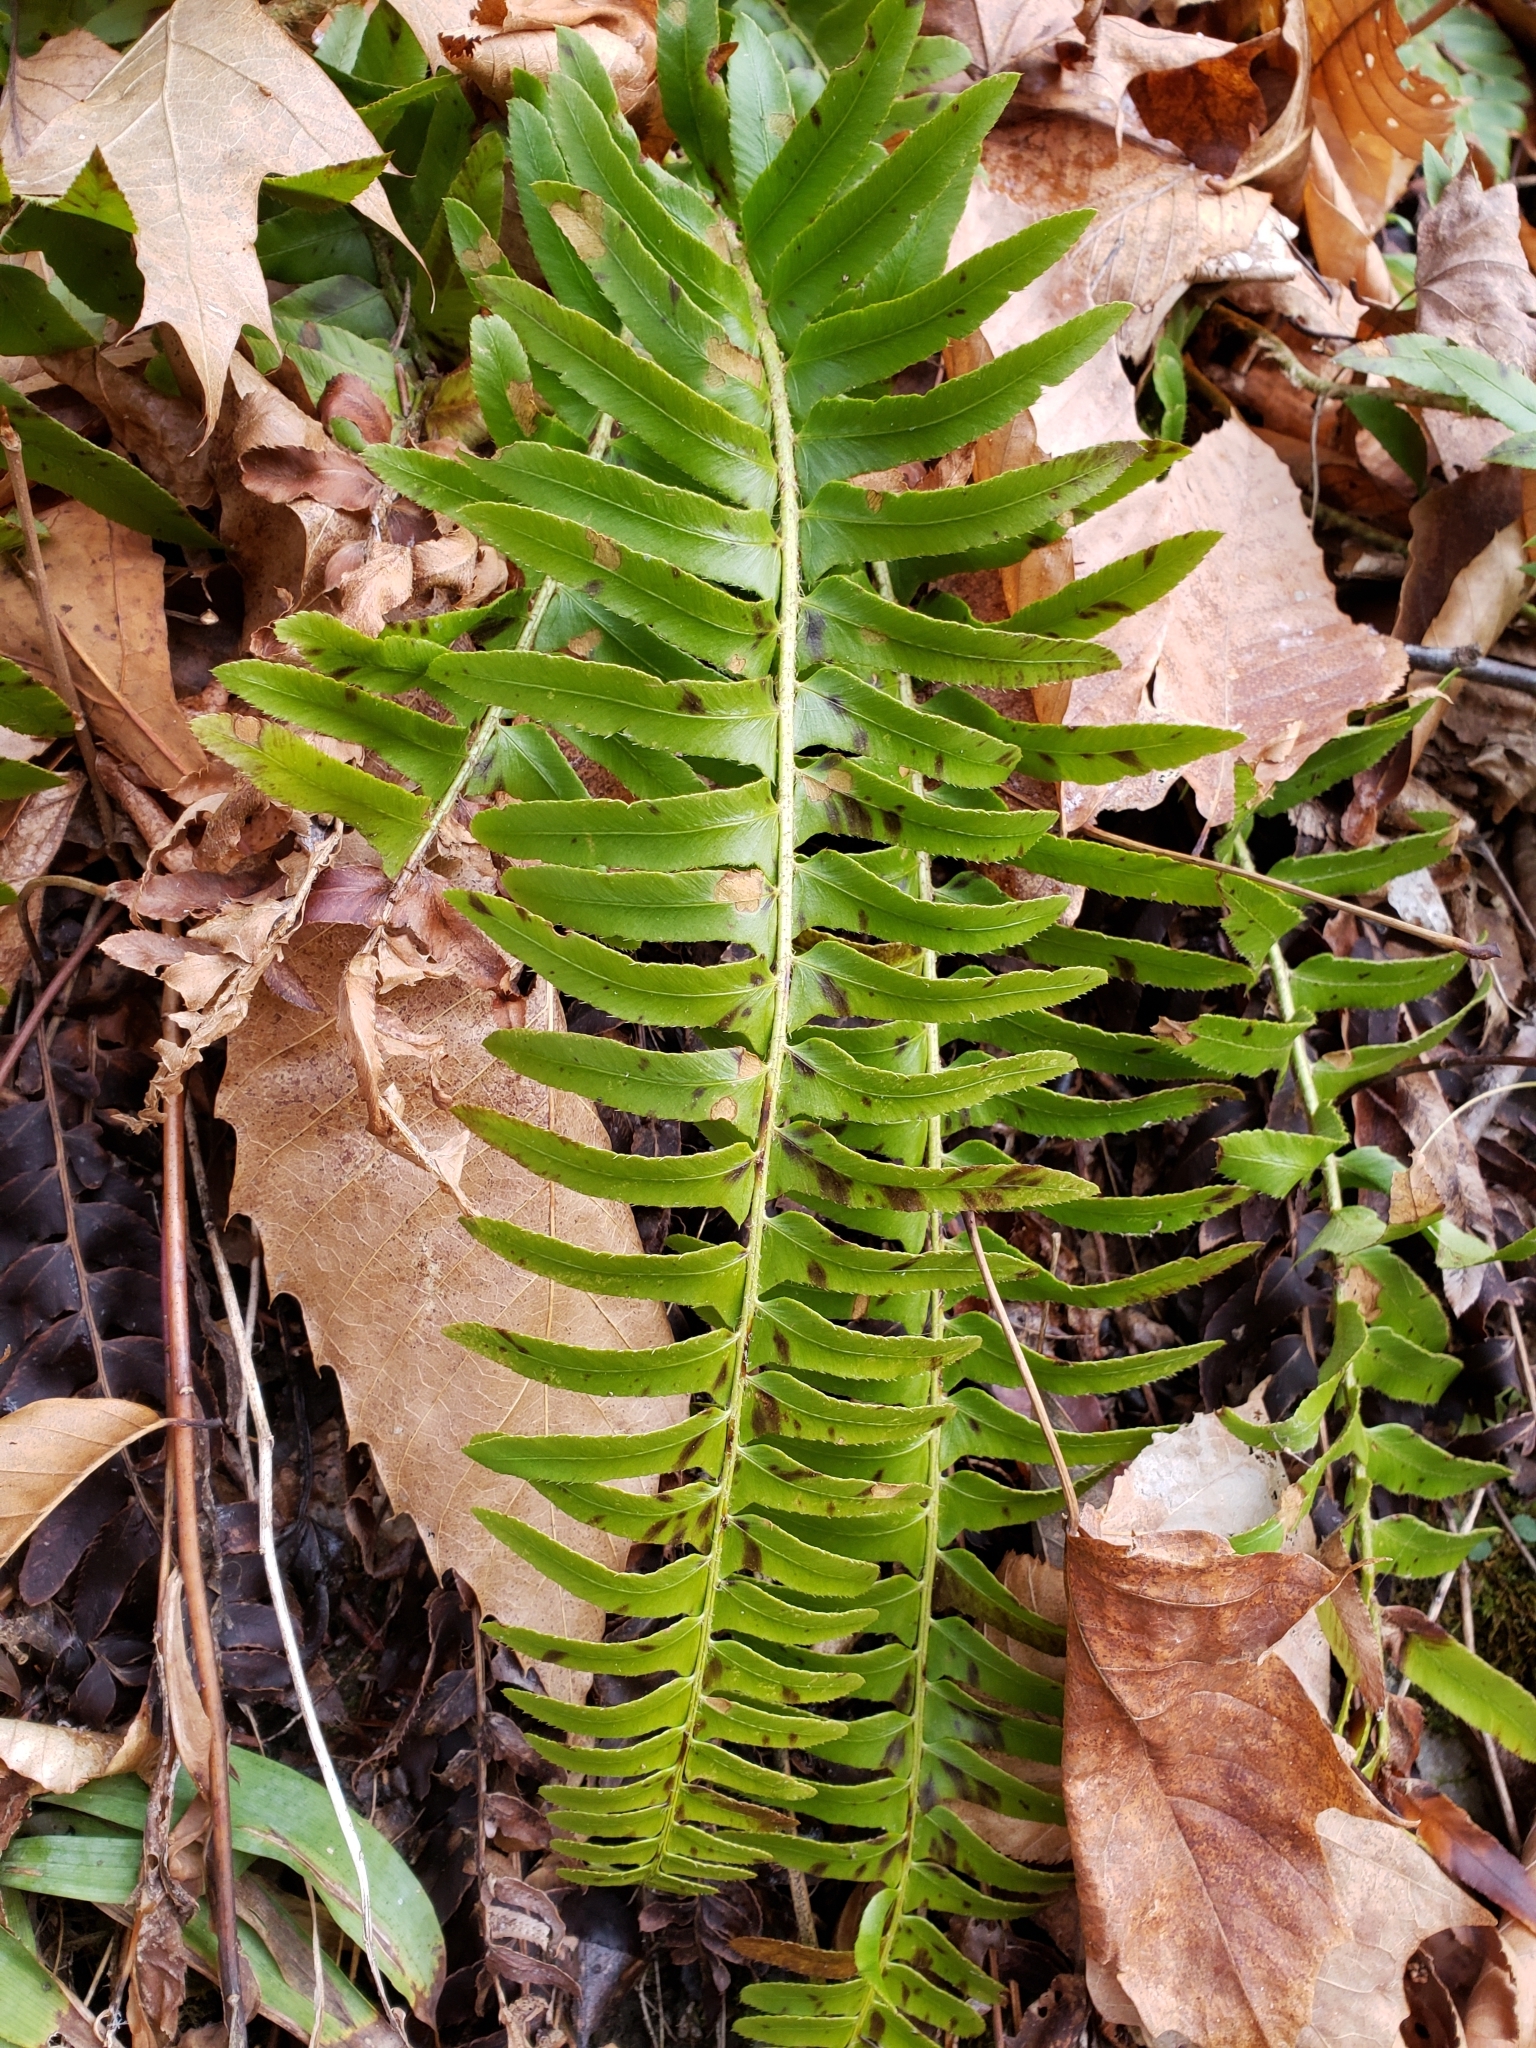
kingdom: Plantae
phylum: Tracheophyta
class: Polypodiopsida
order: Polypodiales
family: Dryopteridaceae
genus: Polystichum
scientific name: Polystichum acrostichoides
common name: Christmas fern
